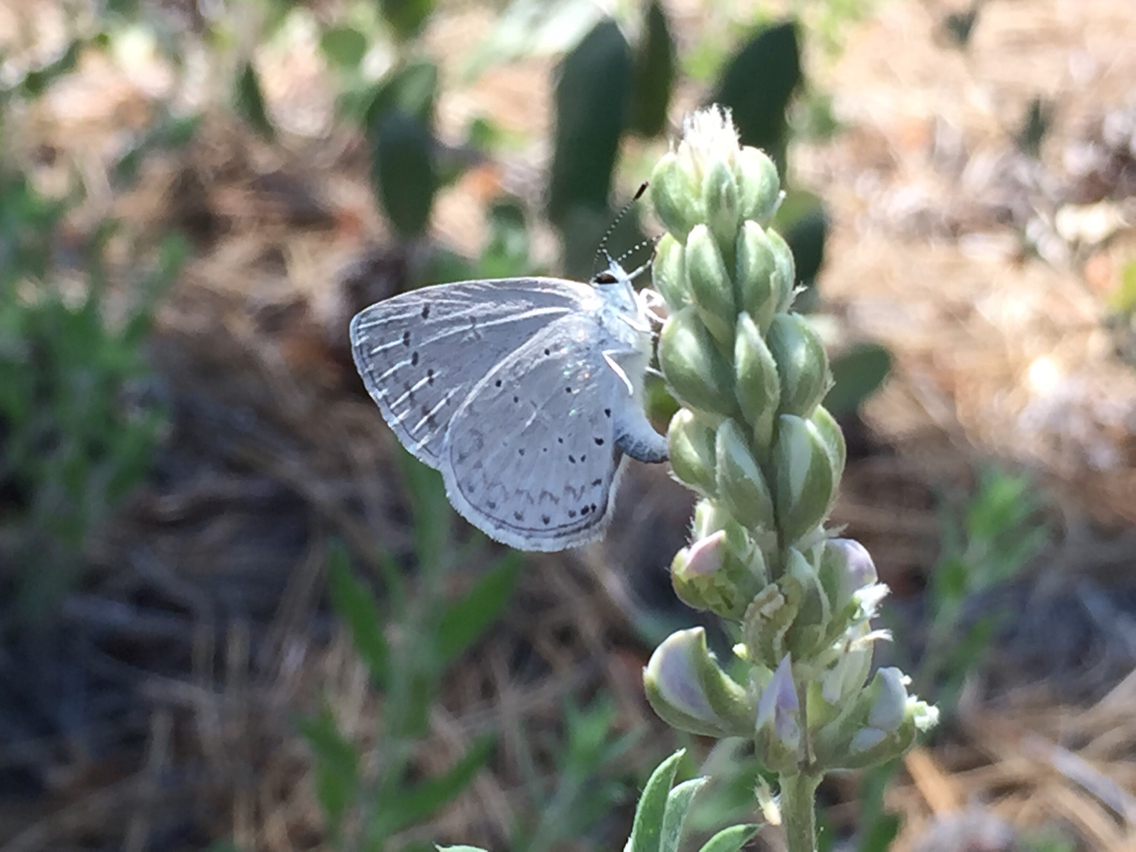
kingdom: Animalia
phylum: Arthropoda
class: Insecta
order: Lepidoptera
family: Lycaenidae
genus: Celastrina
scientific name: Celastrina argiolus
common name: Holly blue
